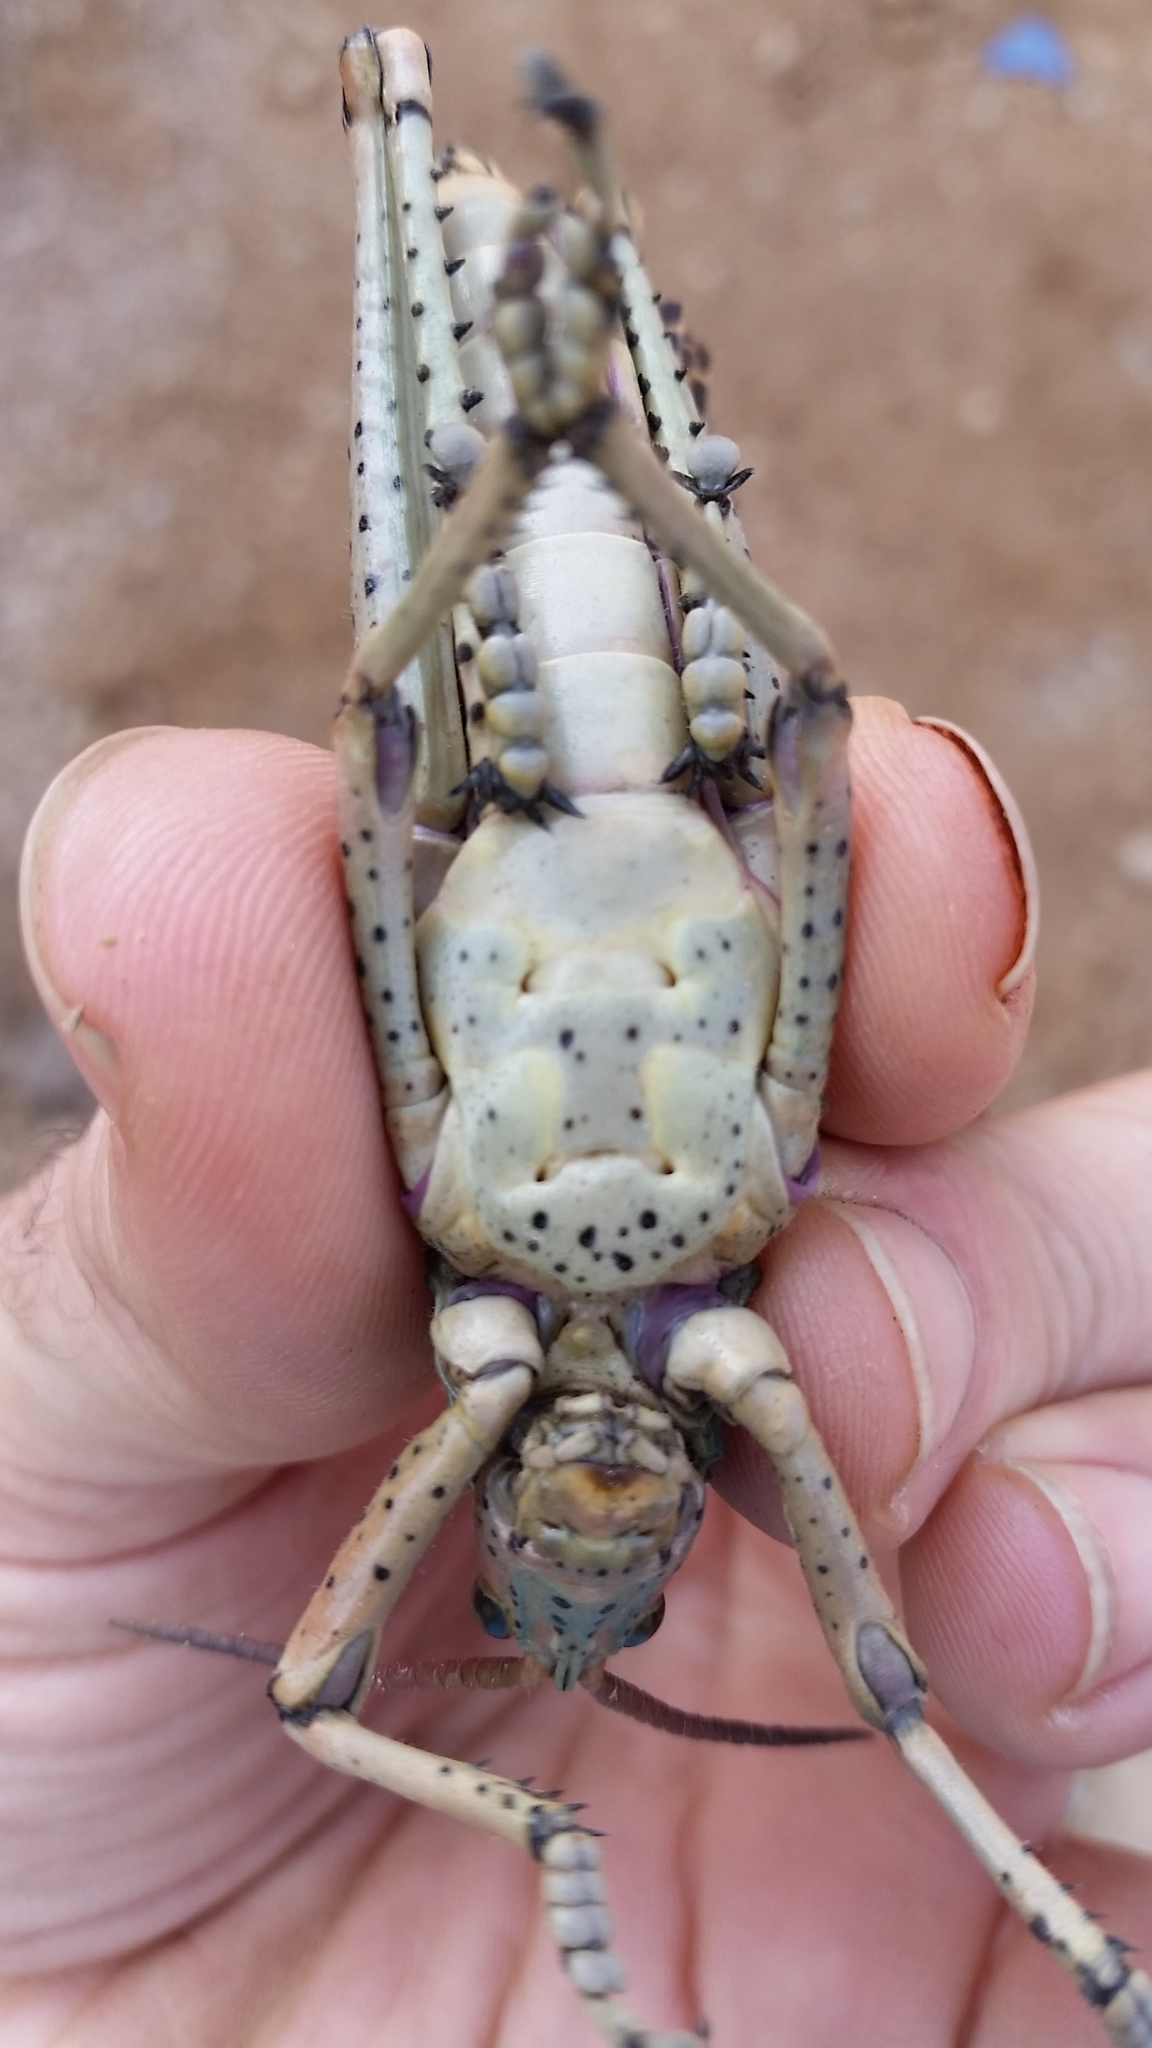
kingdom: Animalia
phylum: Arthropoda
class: Insecta
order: Orthoptera
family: Pyrgomorphidae
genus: Phymateus
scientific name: Phymateus leprosus
